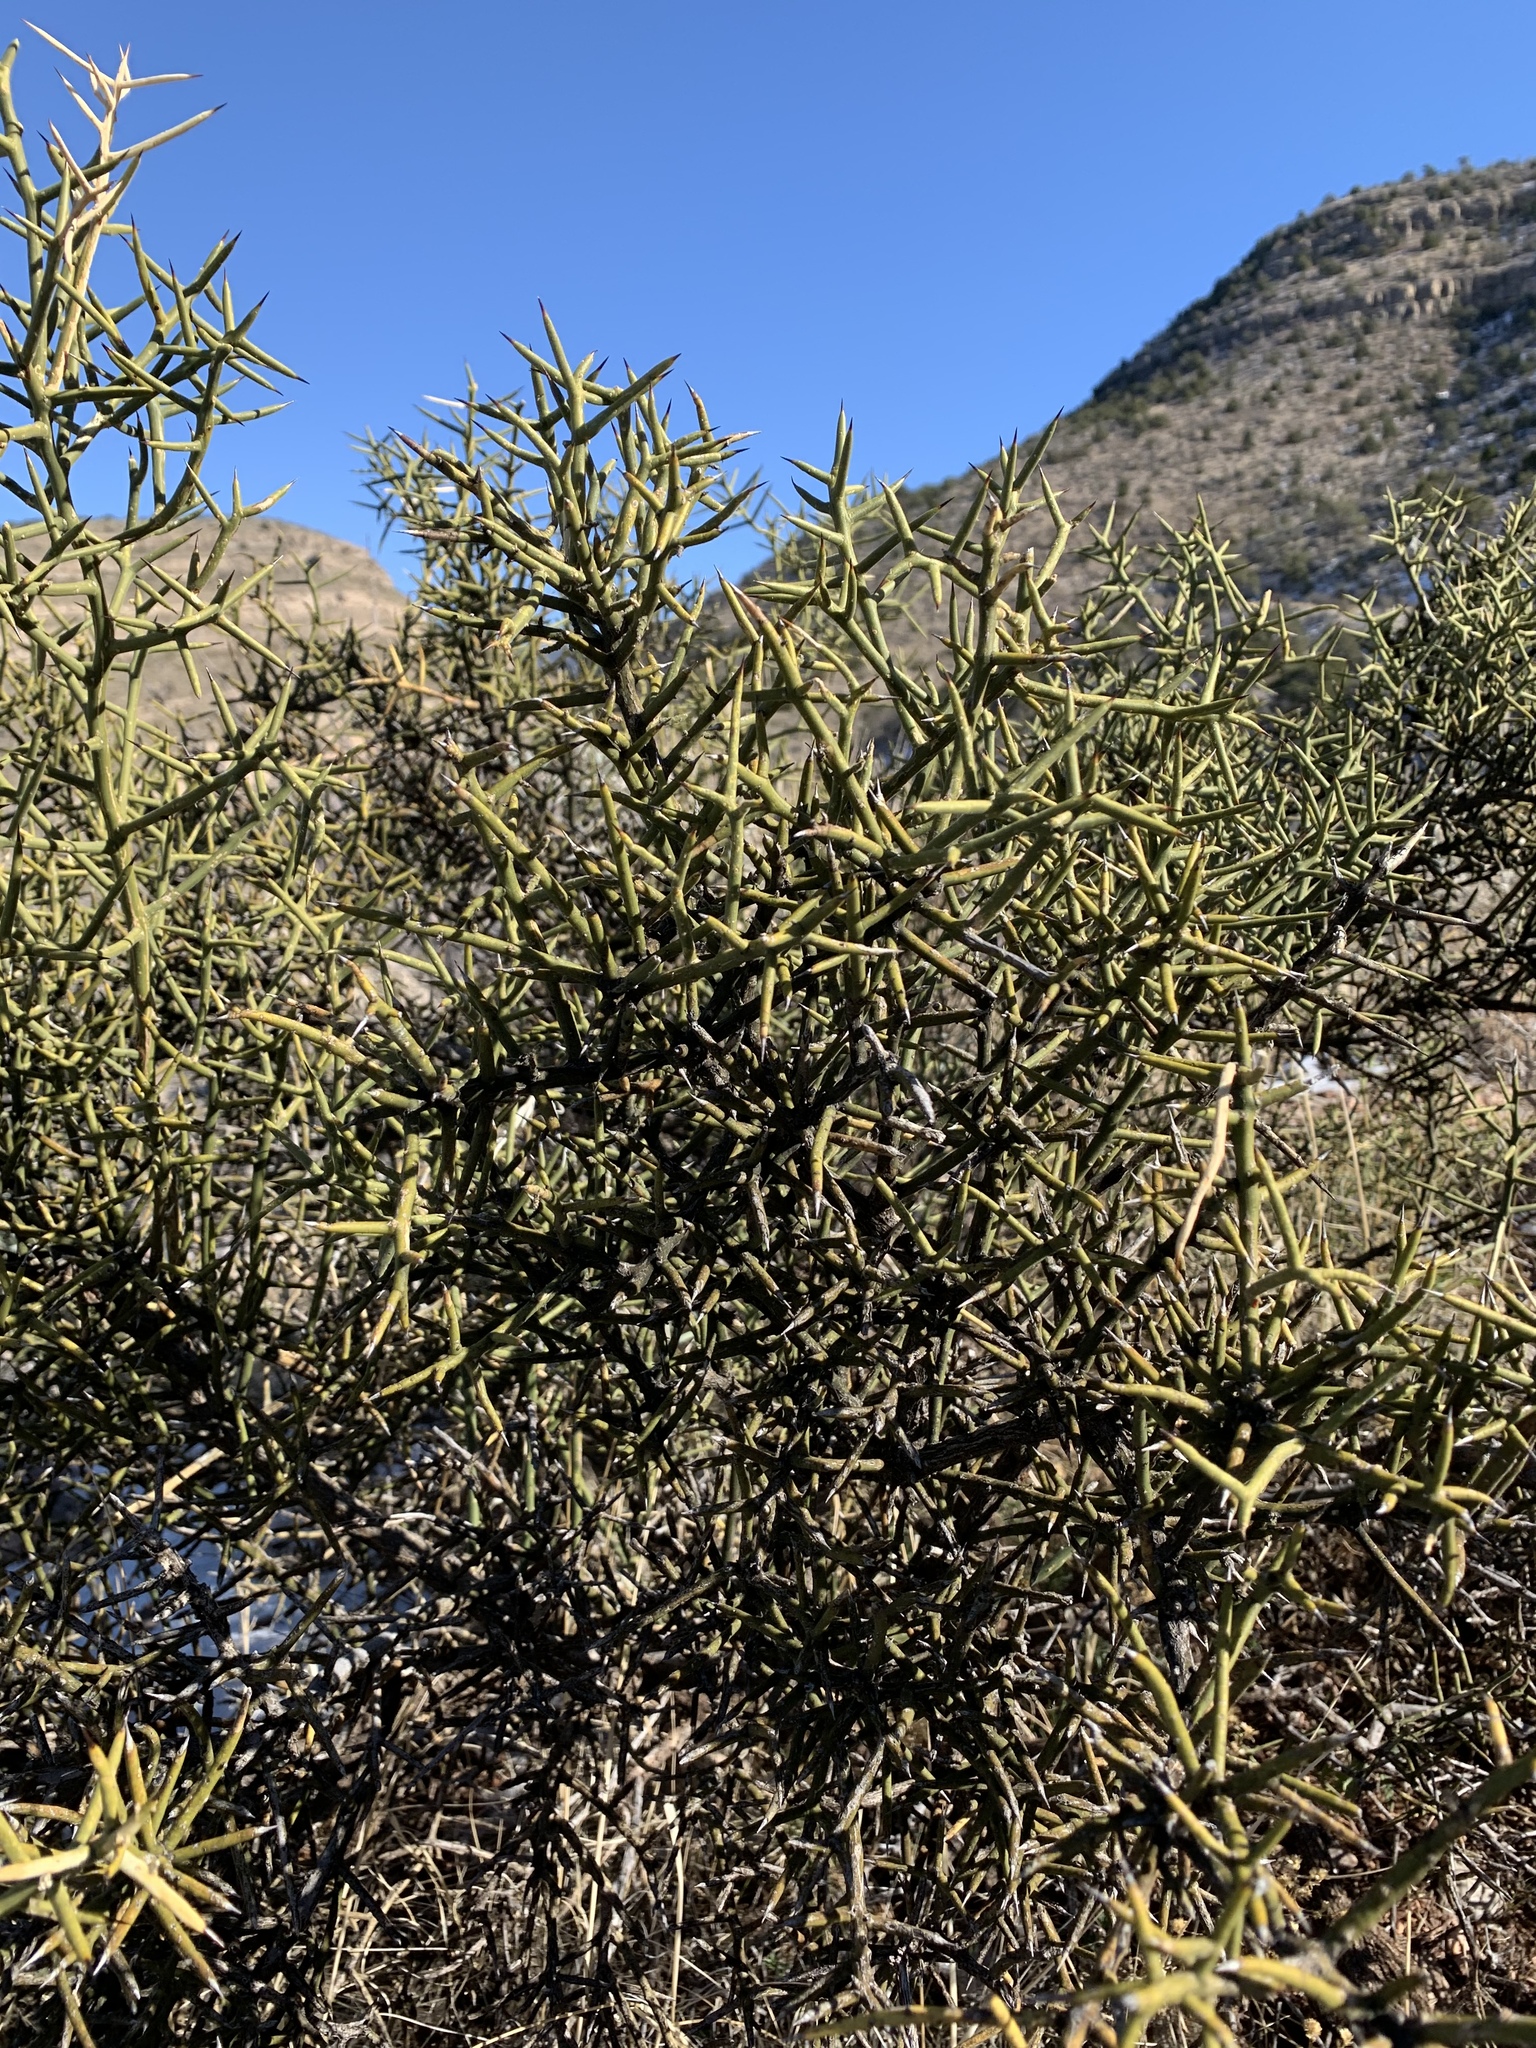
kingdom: Plantae
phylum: Tracheophyta
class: Magnoliopsida
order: Brassicales
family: Koeberliniaceae
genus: Koeberlinia
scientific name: Koeberlinia spinosa
